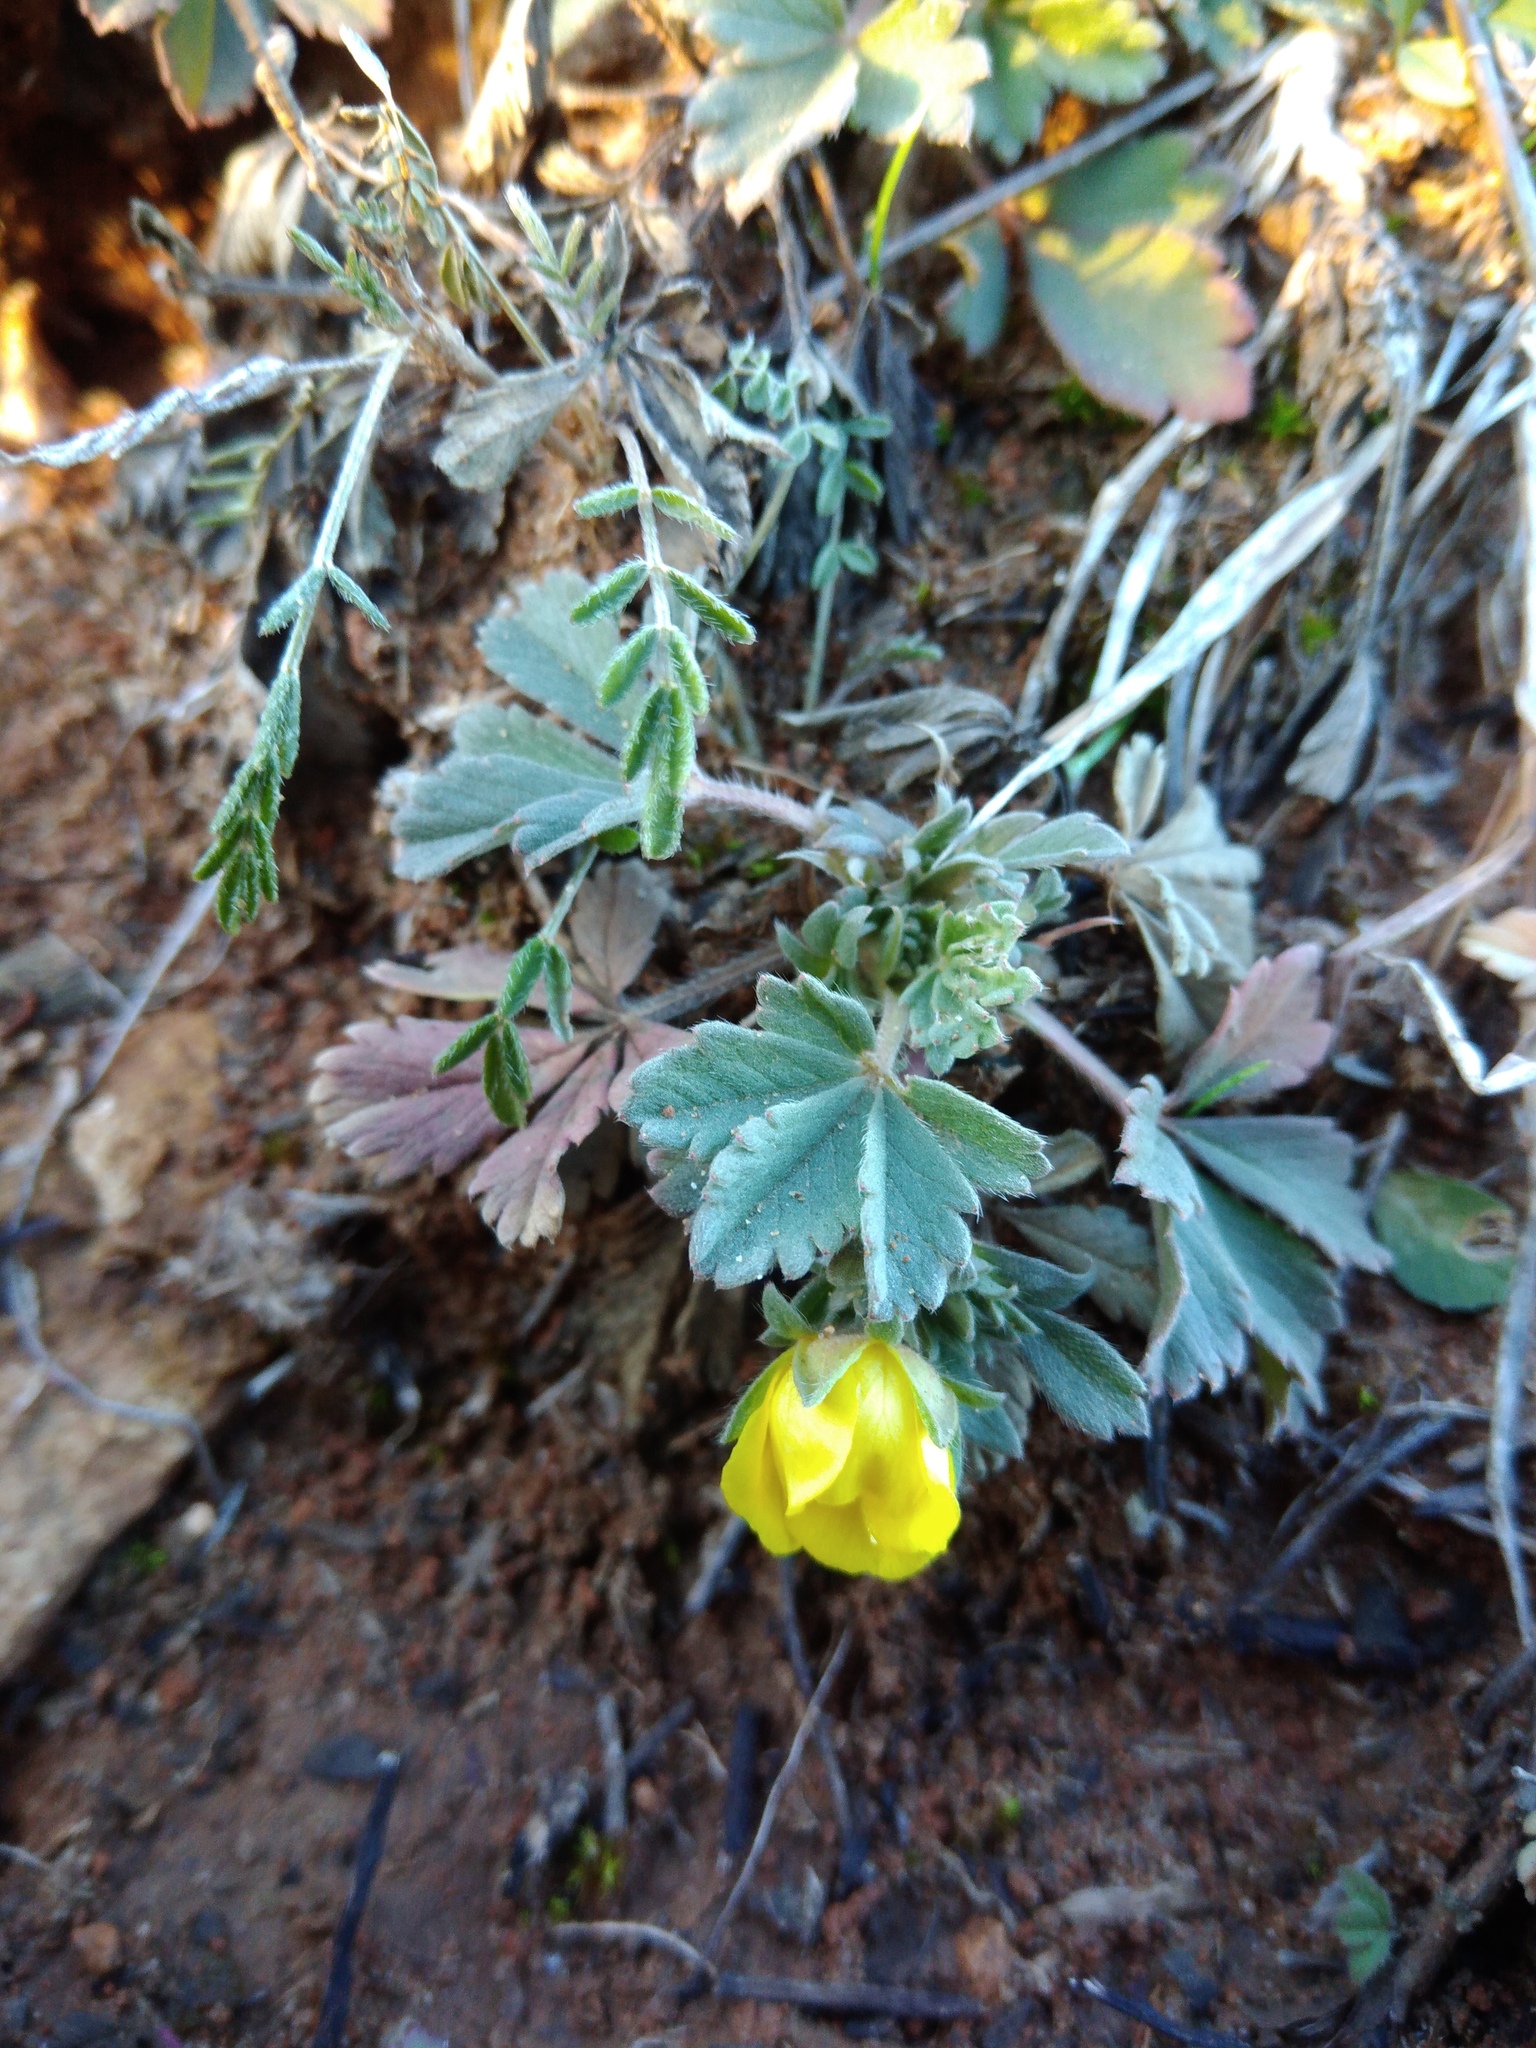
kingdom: Plantae
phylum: Tracheophyta
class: Magnoliopsida
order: Rosales
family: Rosaceae
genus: Potentilla
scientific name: Potentilla incana
